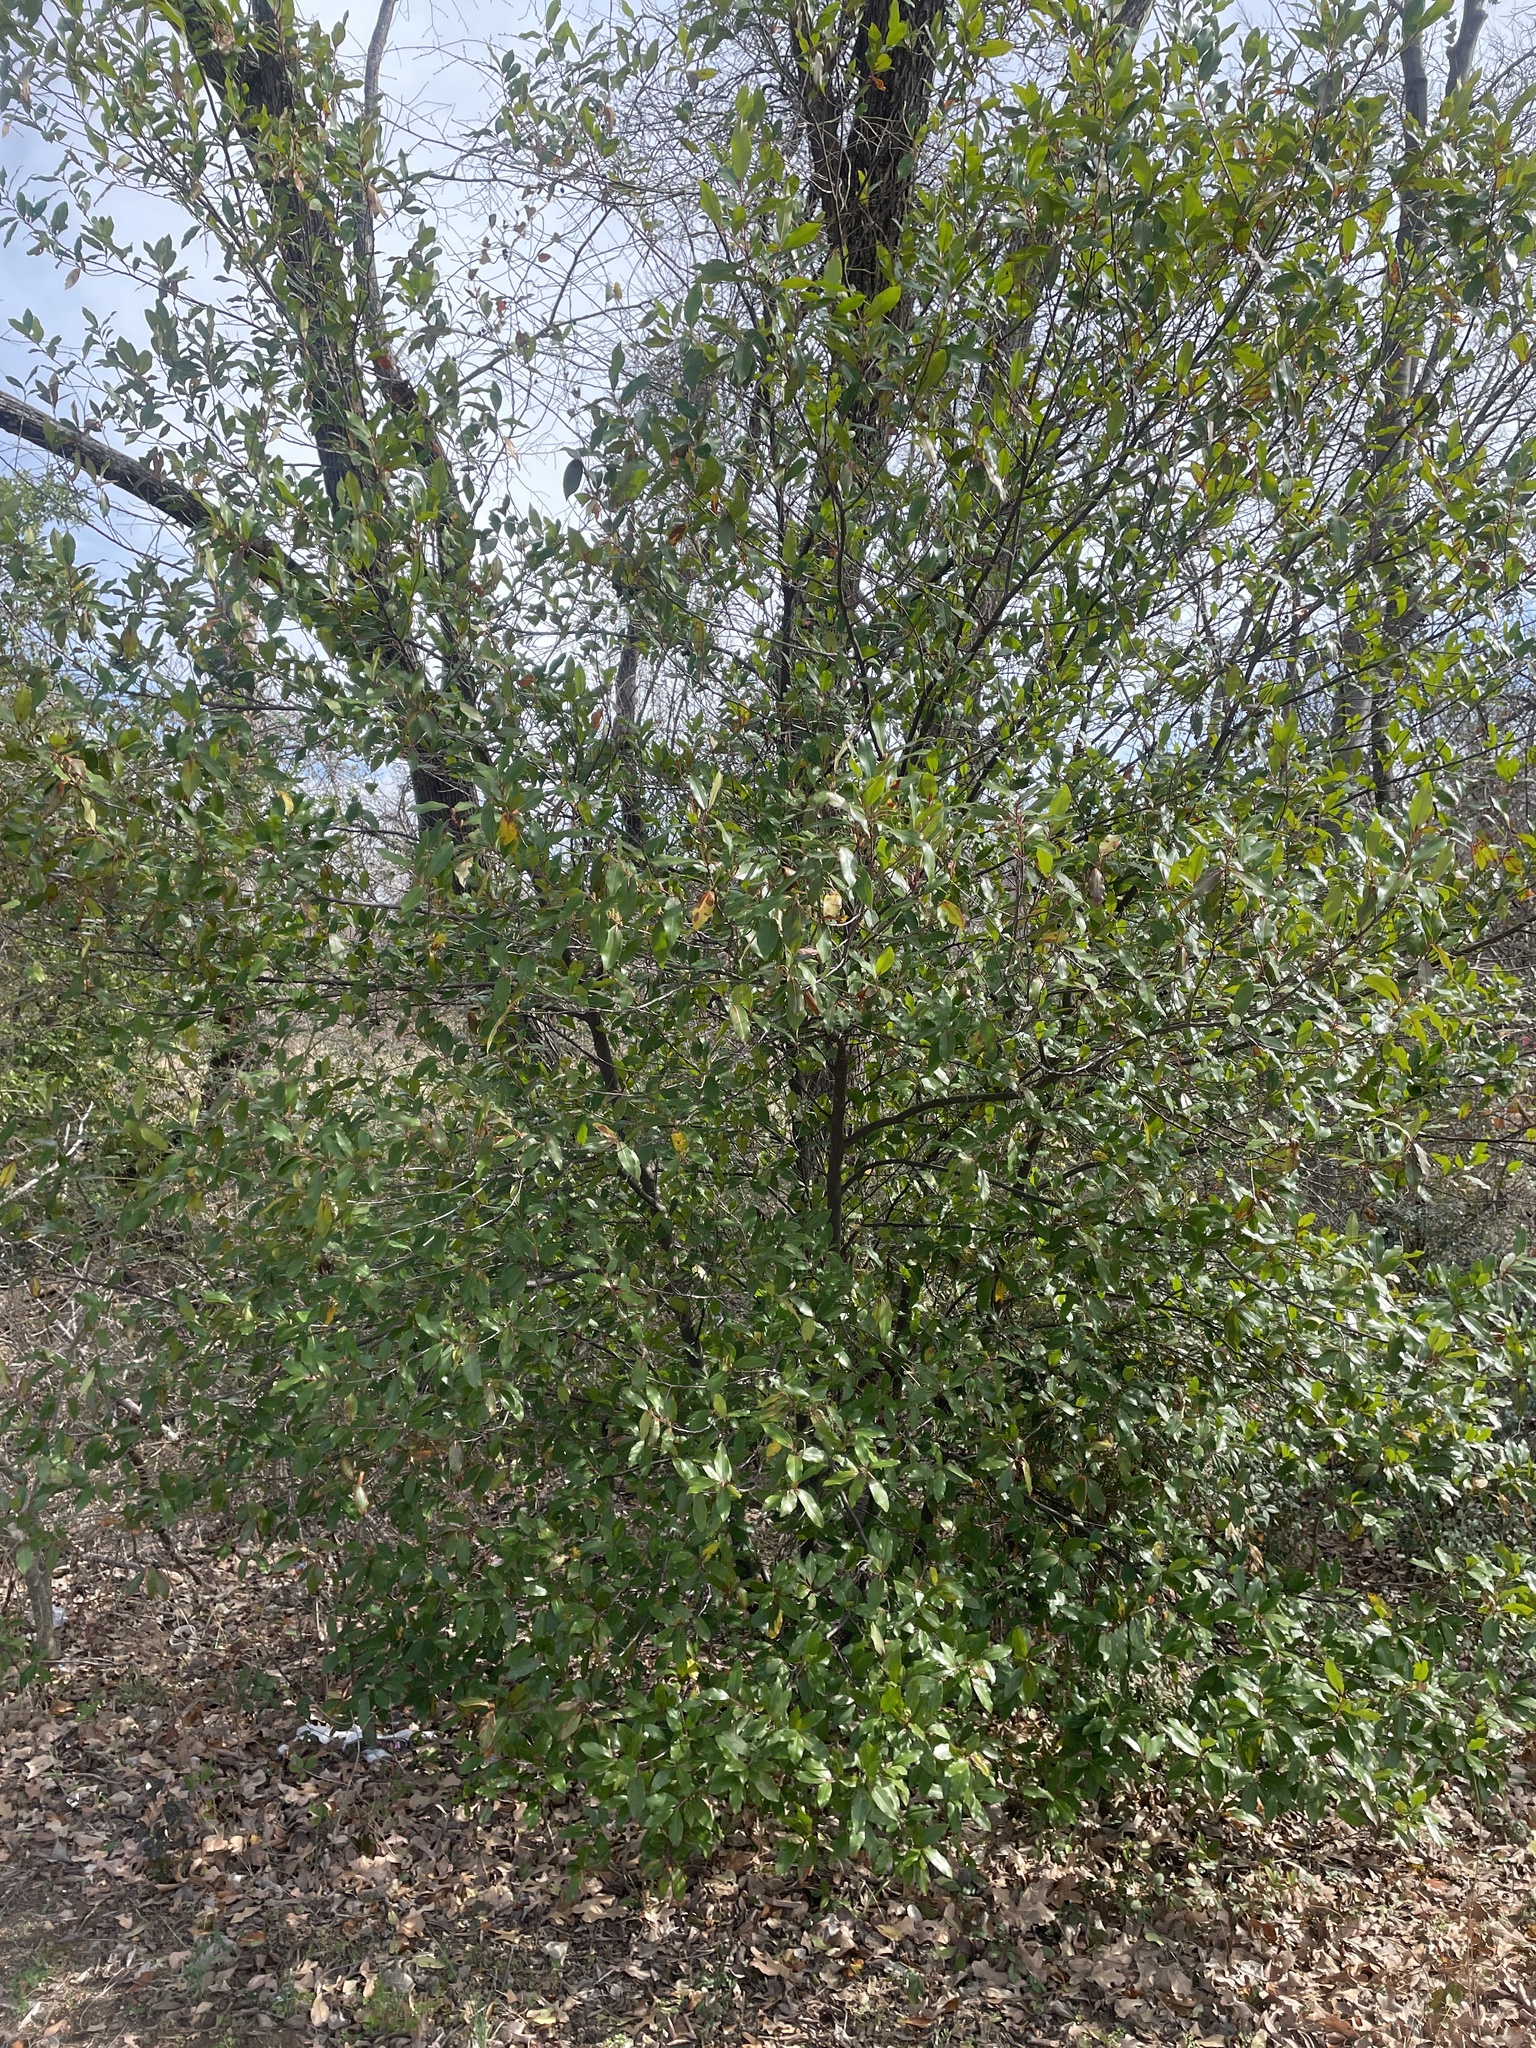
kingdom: Plantae
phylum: Tracheophyta
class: Magnoliopsida
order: Rosales
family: Rosaceae
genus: Prunus
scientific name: Prunus caroliniana
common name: Carolina laurel cherry
